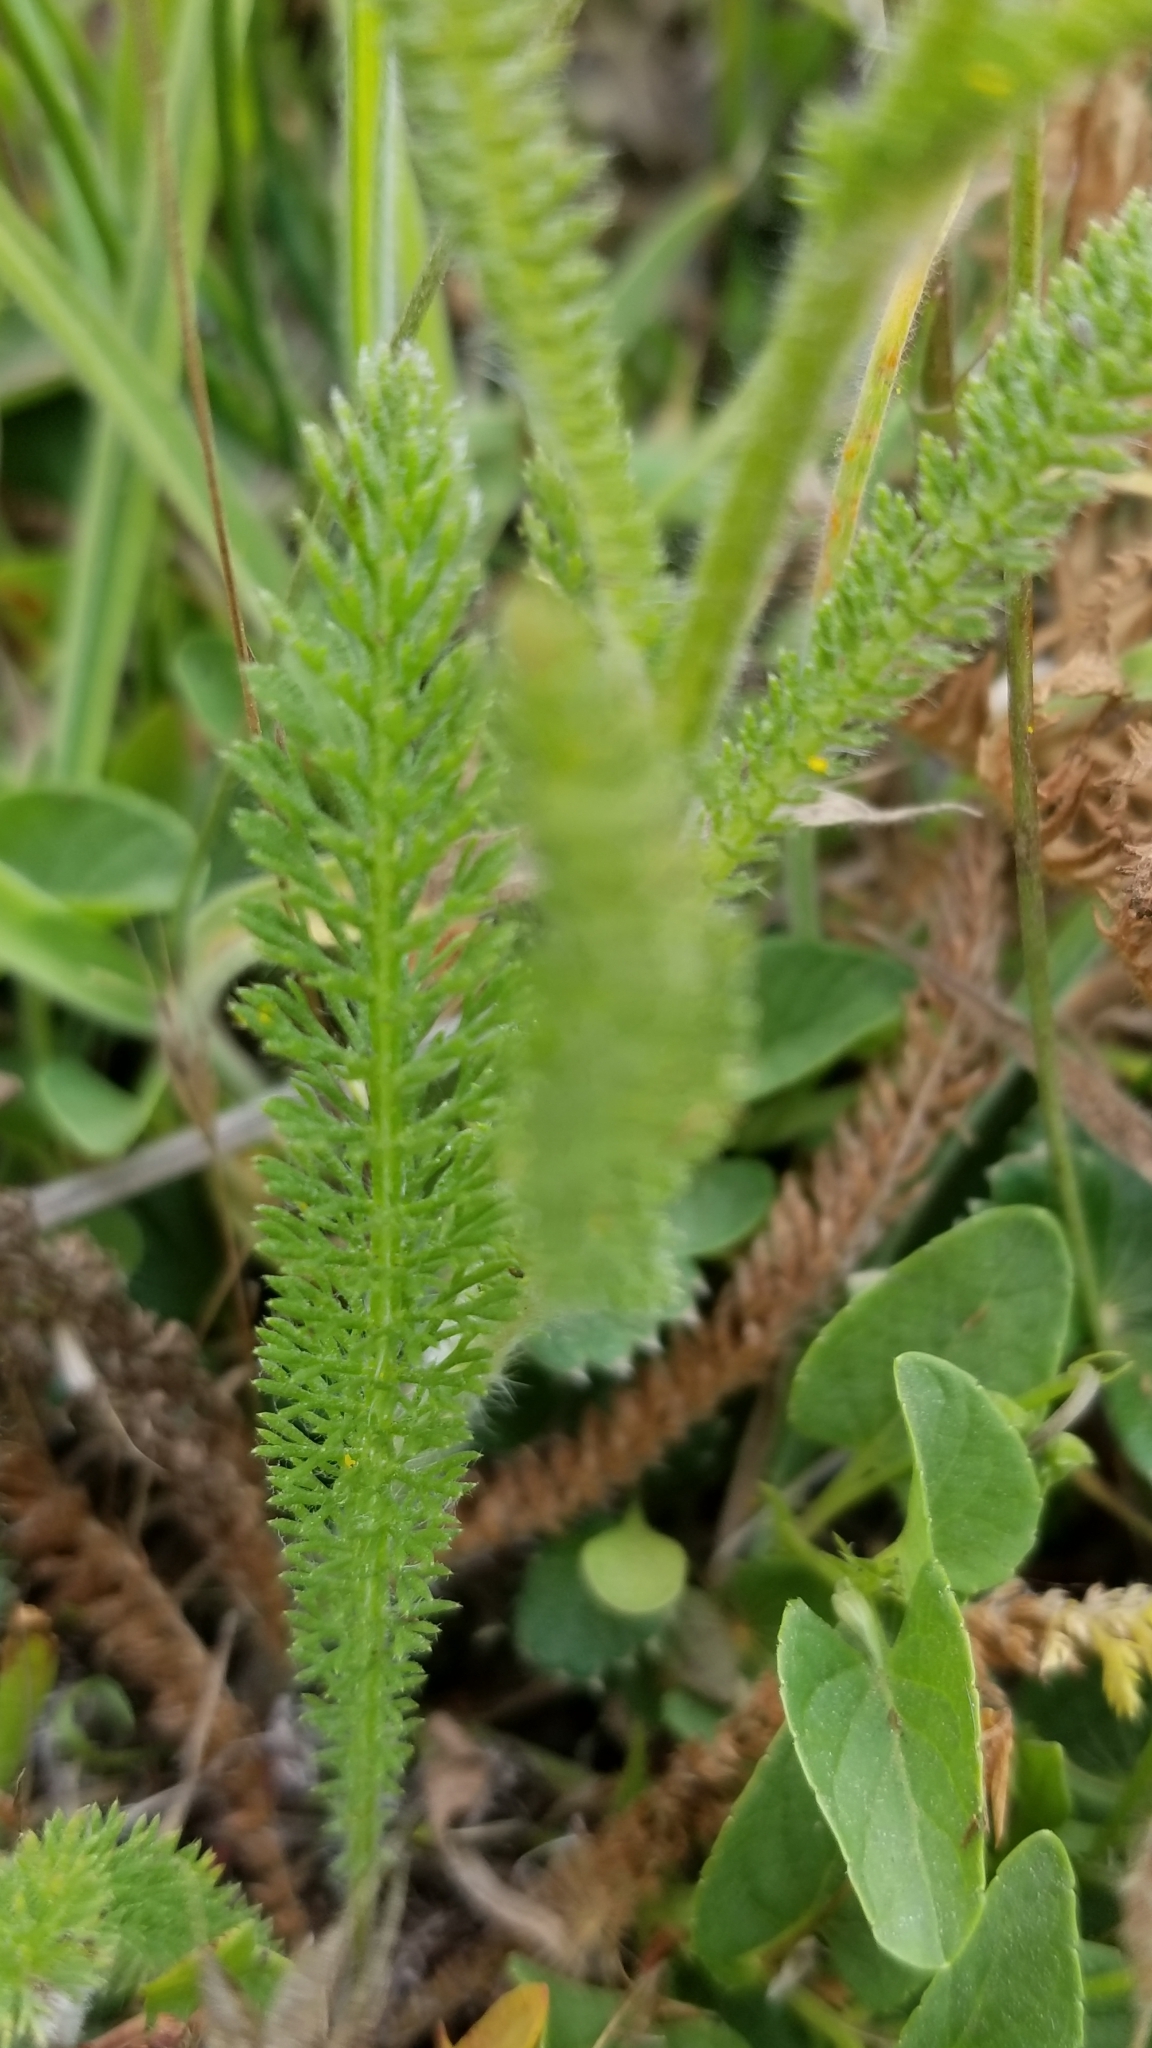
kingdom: Plantae
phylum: Tracheophyta
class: Magnoliopsida
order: Asterales
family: Asteraceae
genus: Achillea
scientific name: Achillea millefolium
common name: Yarrow
